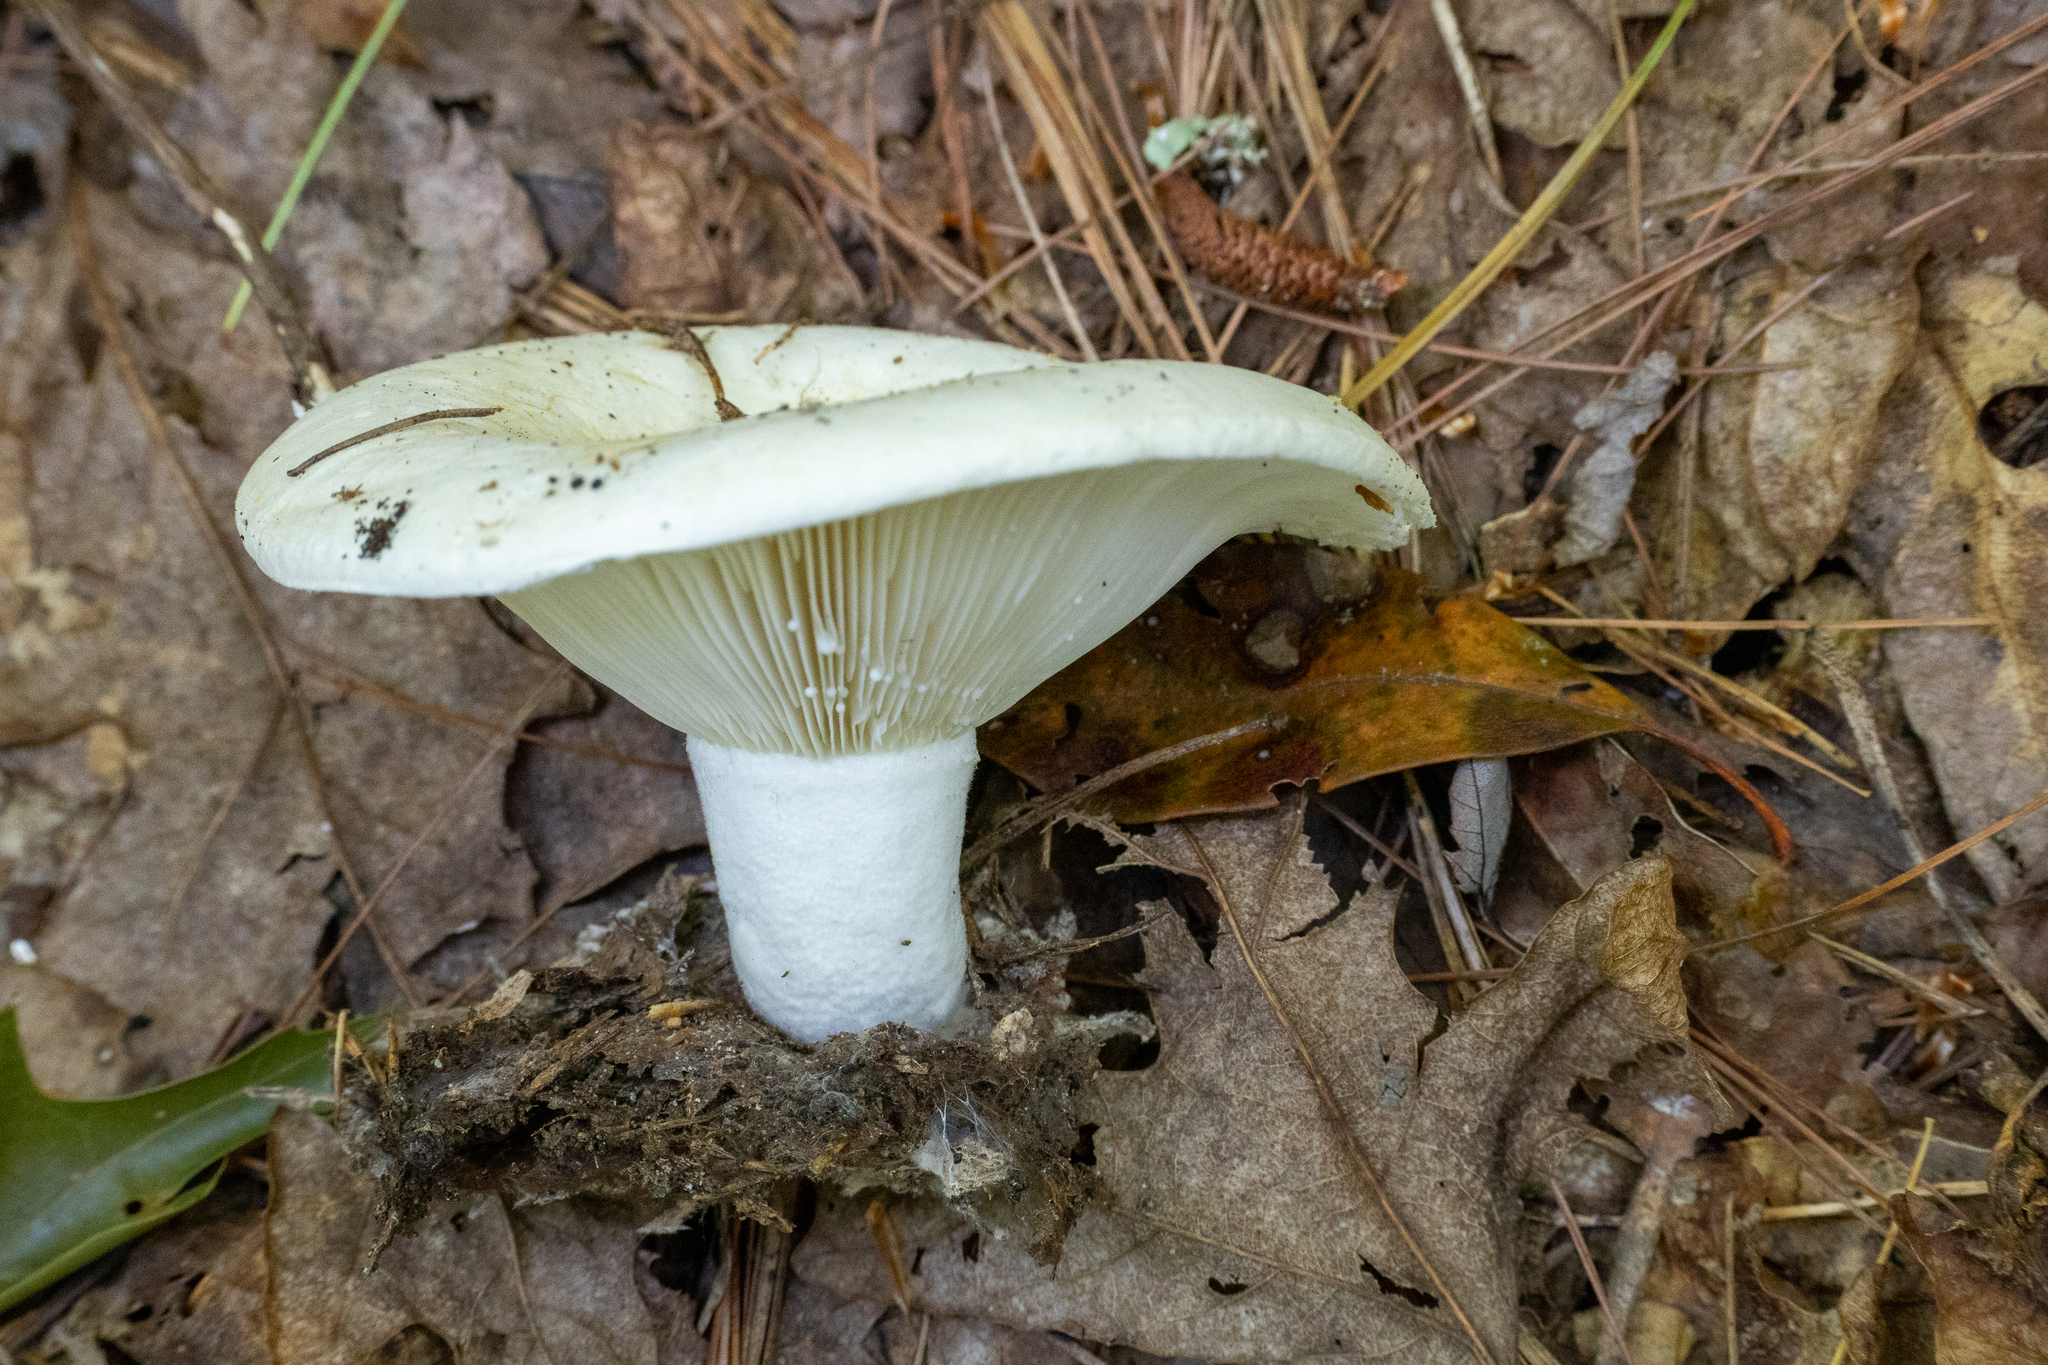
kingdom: Fungi
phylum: Basidiomycota
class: Agaricomycetes
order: Russulales
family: Russulaceae
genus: Lactifluus
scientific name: Lactifluus piperatus
